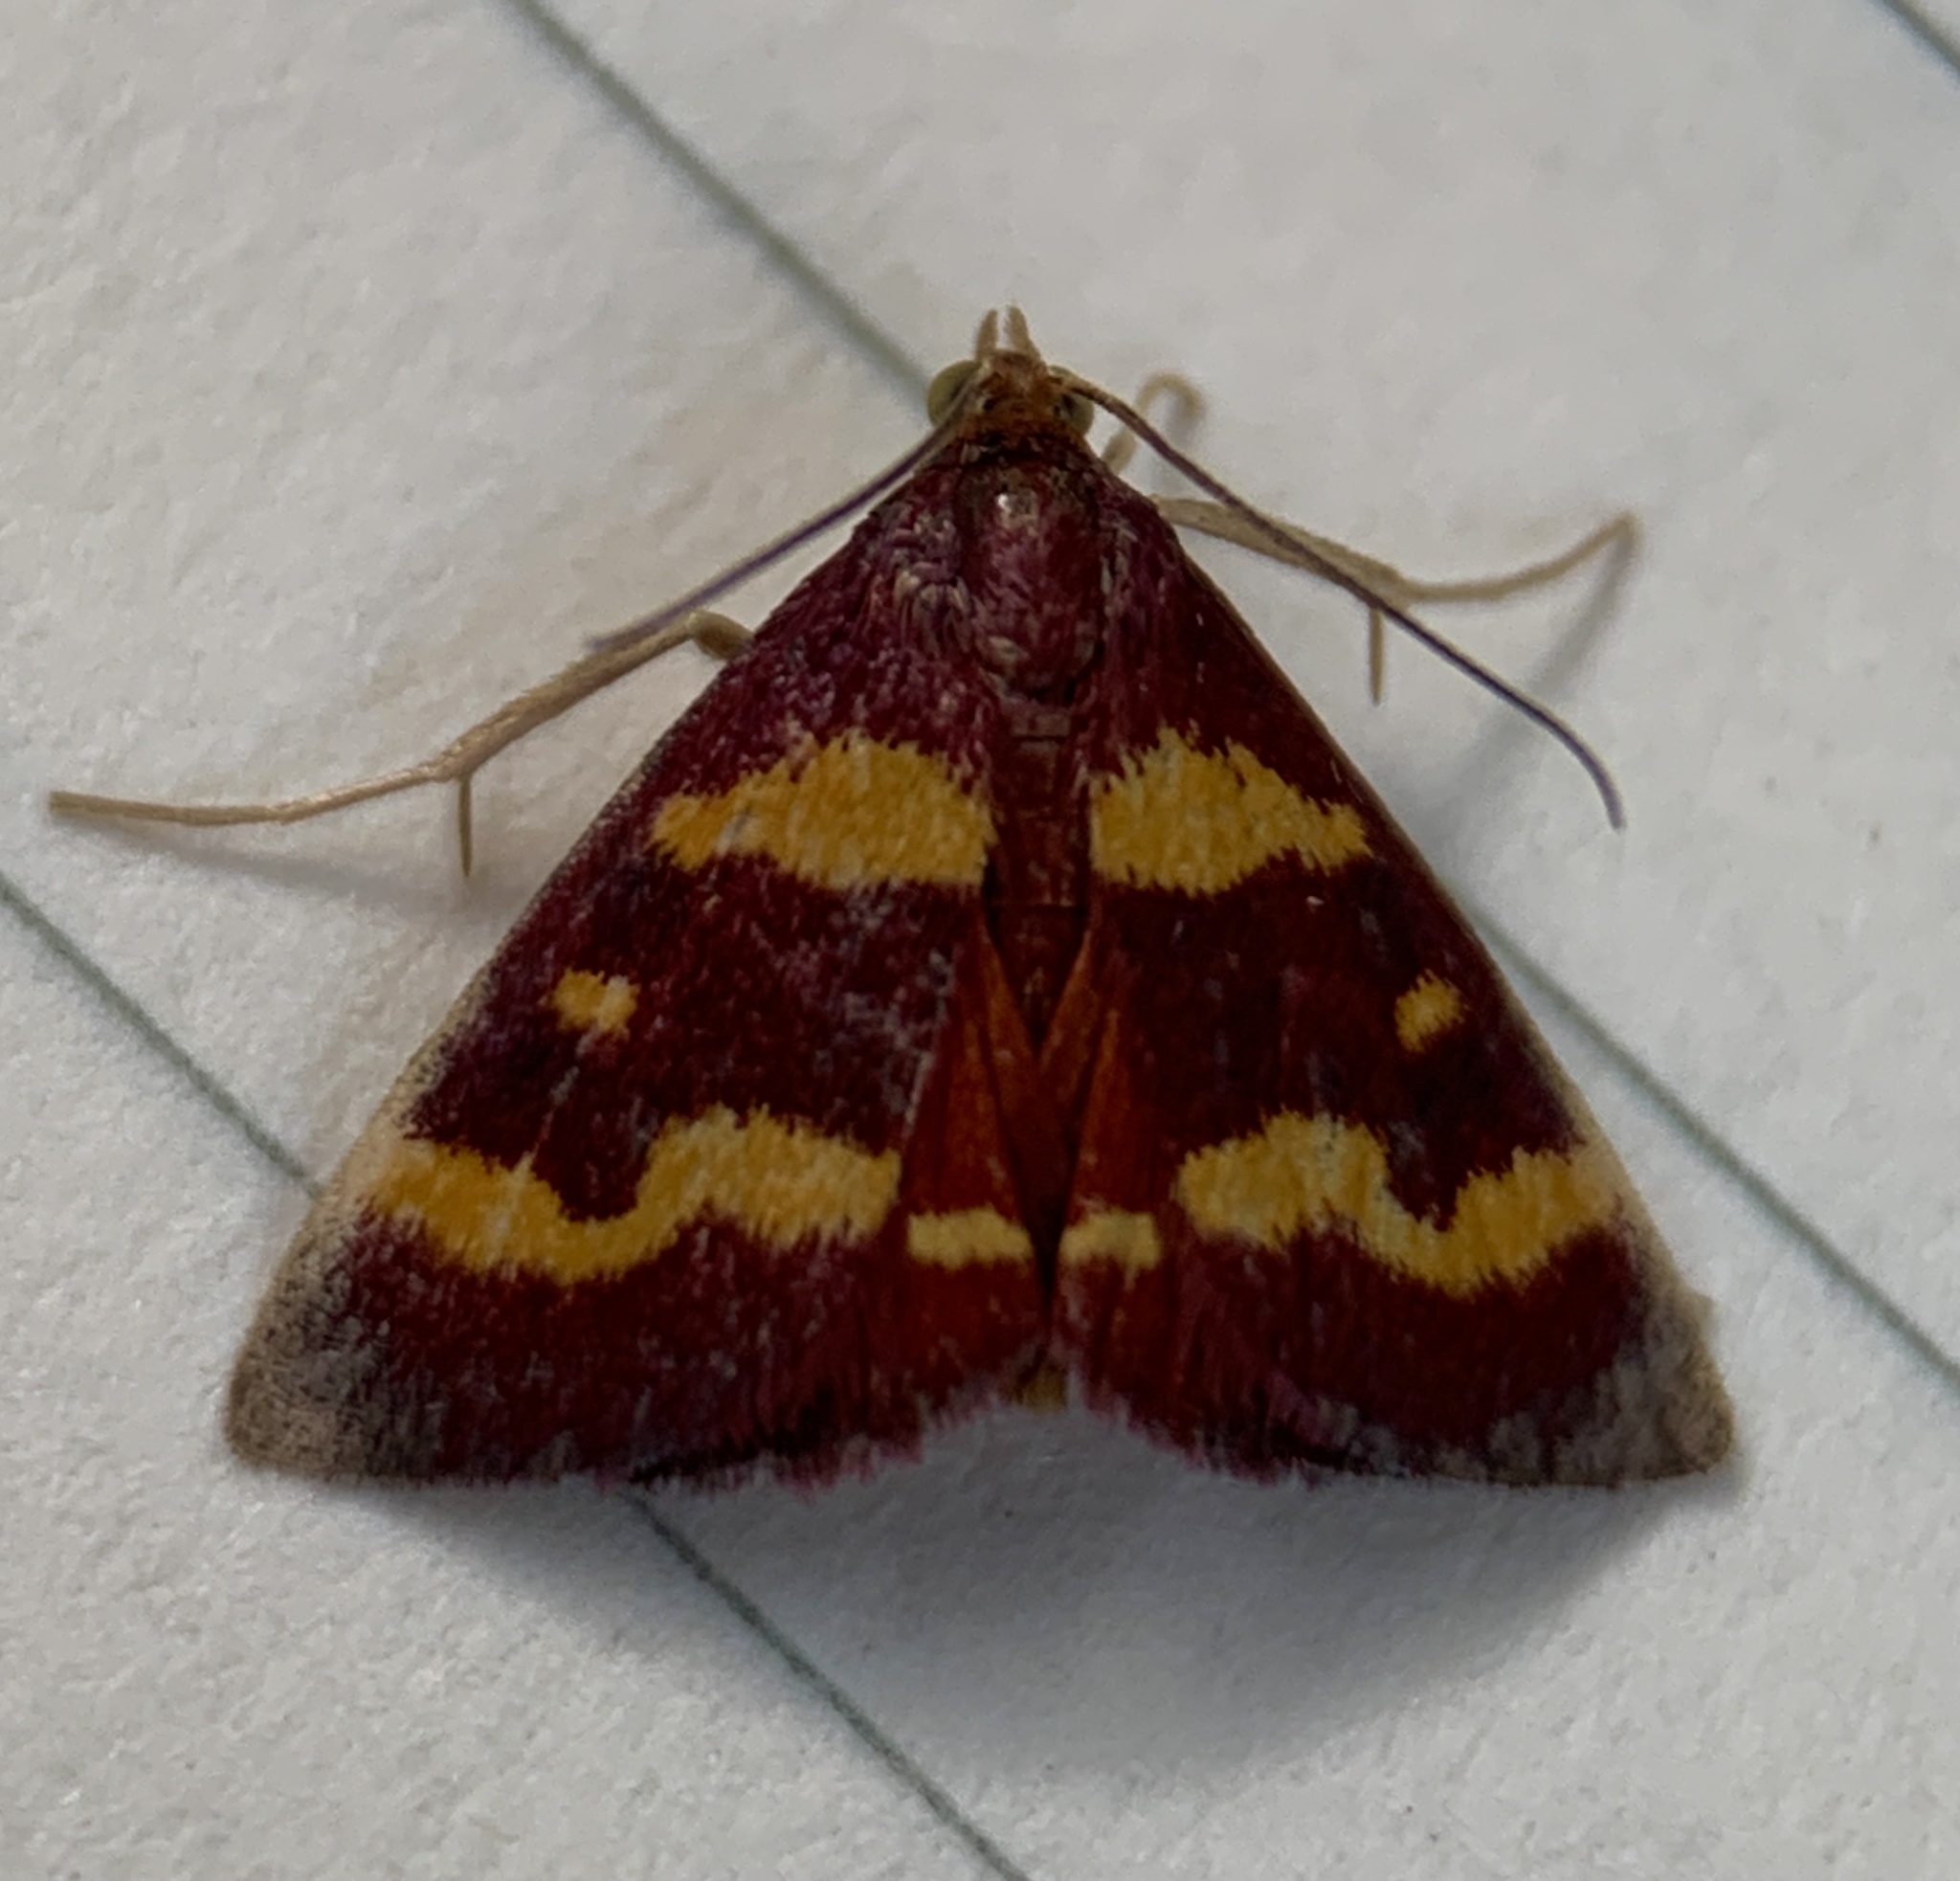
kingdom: Animalia
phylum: Arthropoda
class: Insecta
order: Lepidoptera
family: Crambidae
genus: Pyrausta
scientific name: Pyrausta tyralis
